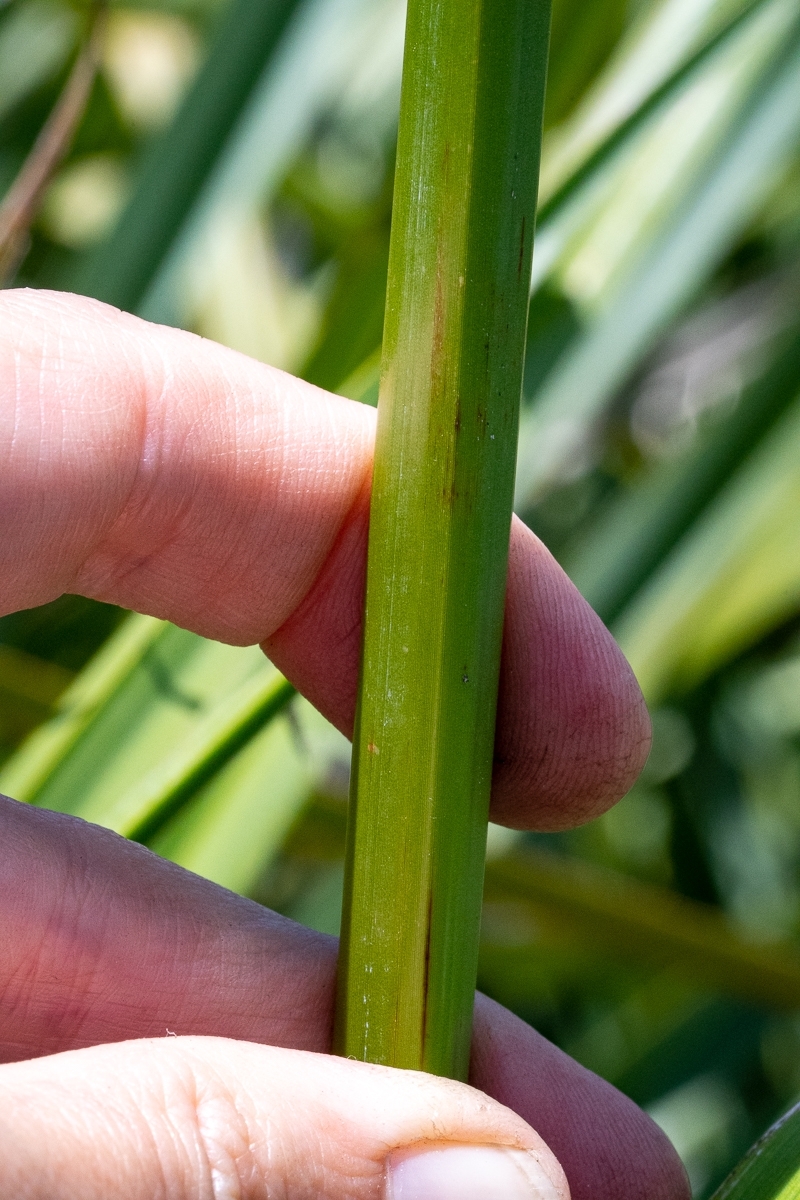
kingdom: Plantae
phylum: Tracheophyta
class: Liliopsida
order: Poales
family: Cyperaceae
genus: Carpha
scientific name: Carpha glomerata
